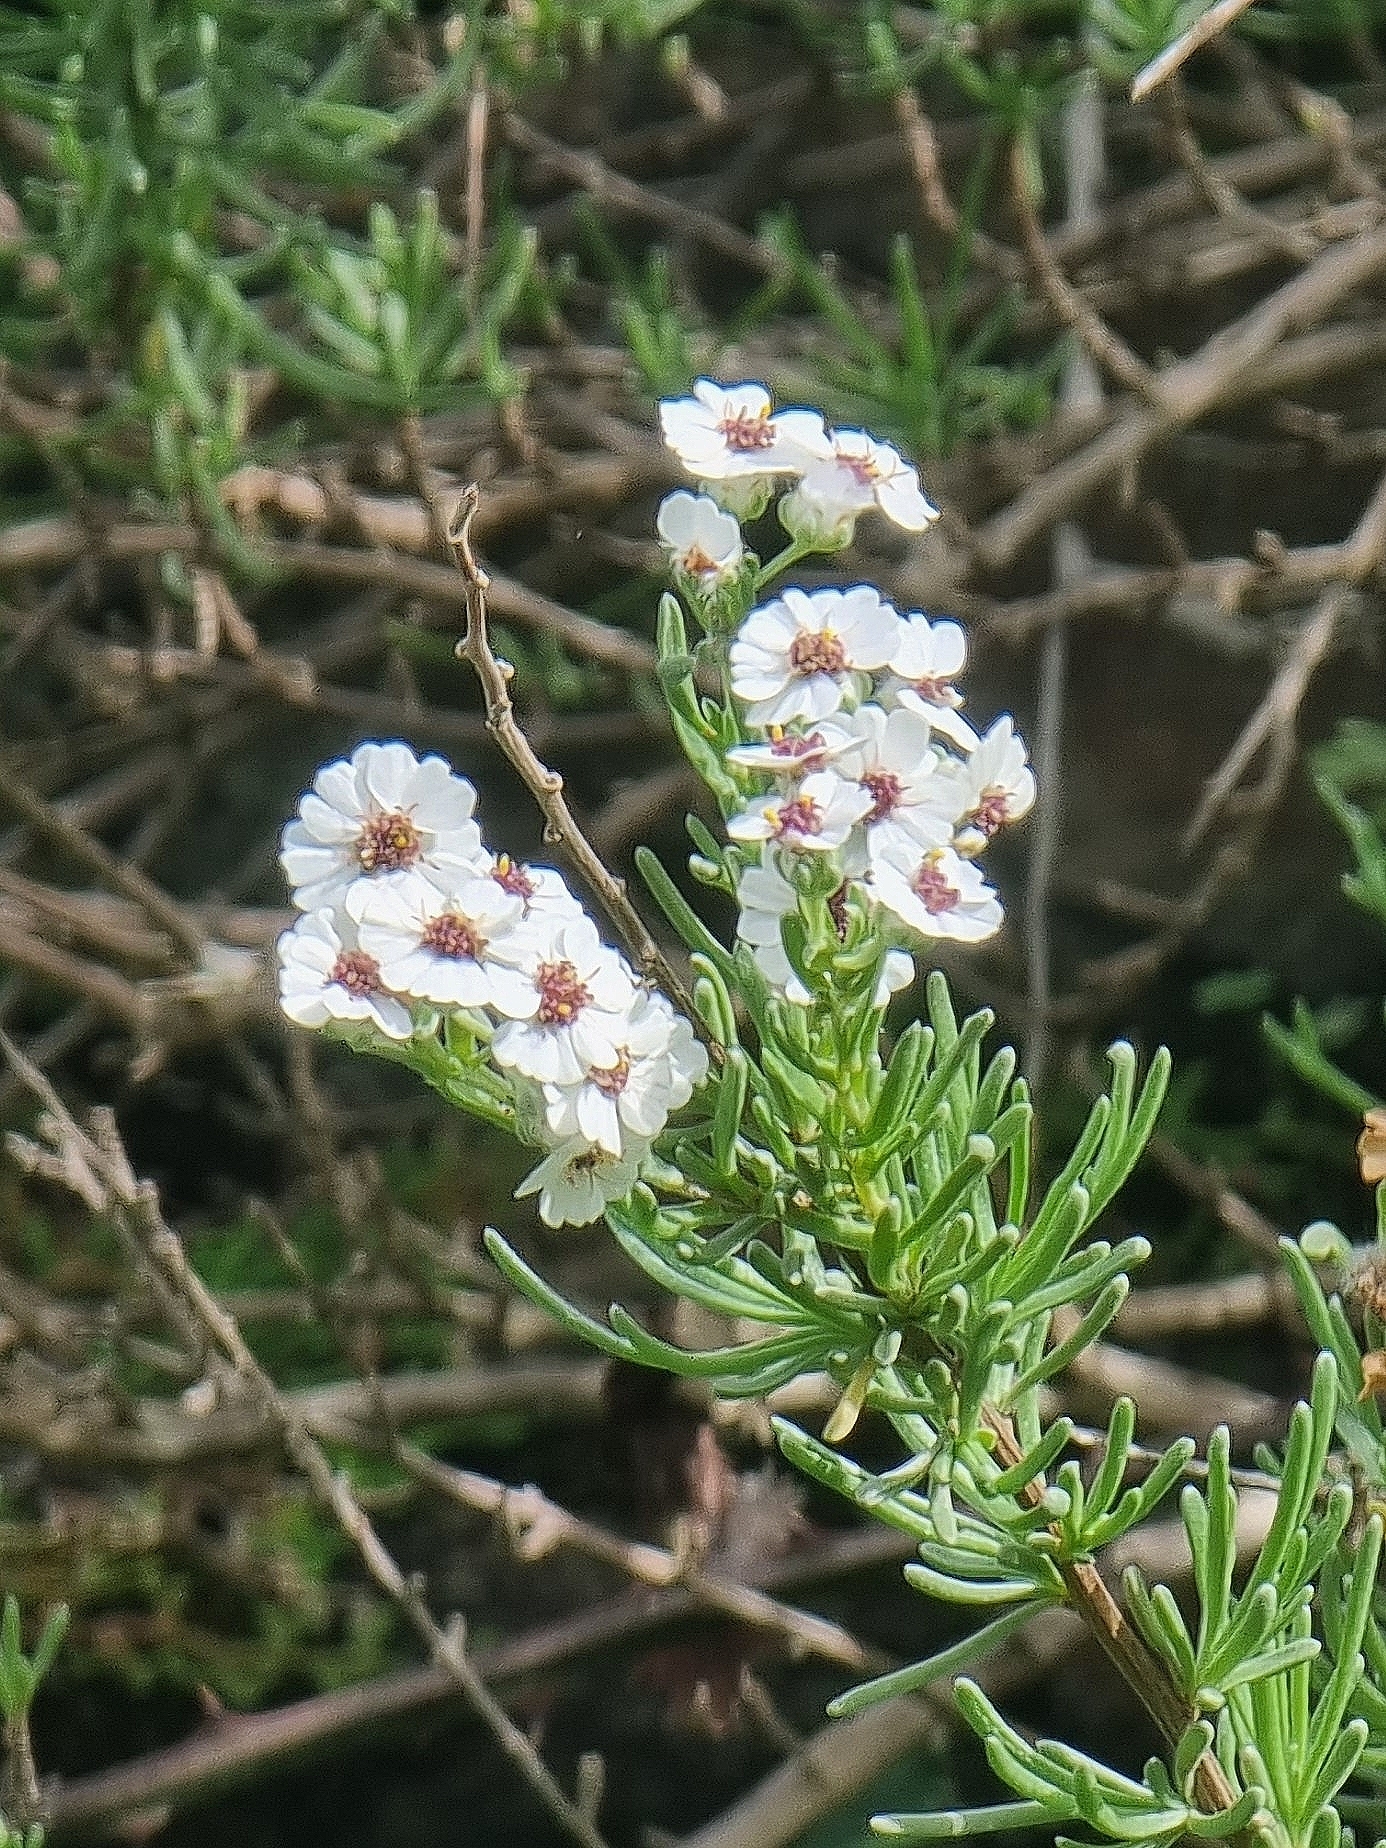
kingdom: Plantae
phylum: Tracheophyta
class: Magnoliopsida
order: Asterales
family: Asteraceae
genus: Eriocephalus
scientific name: Eriocephalus africanus
